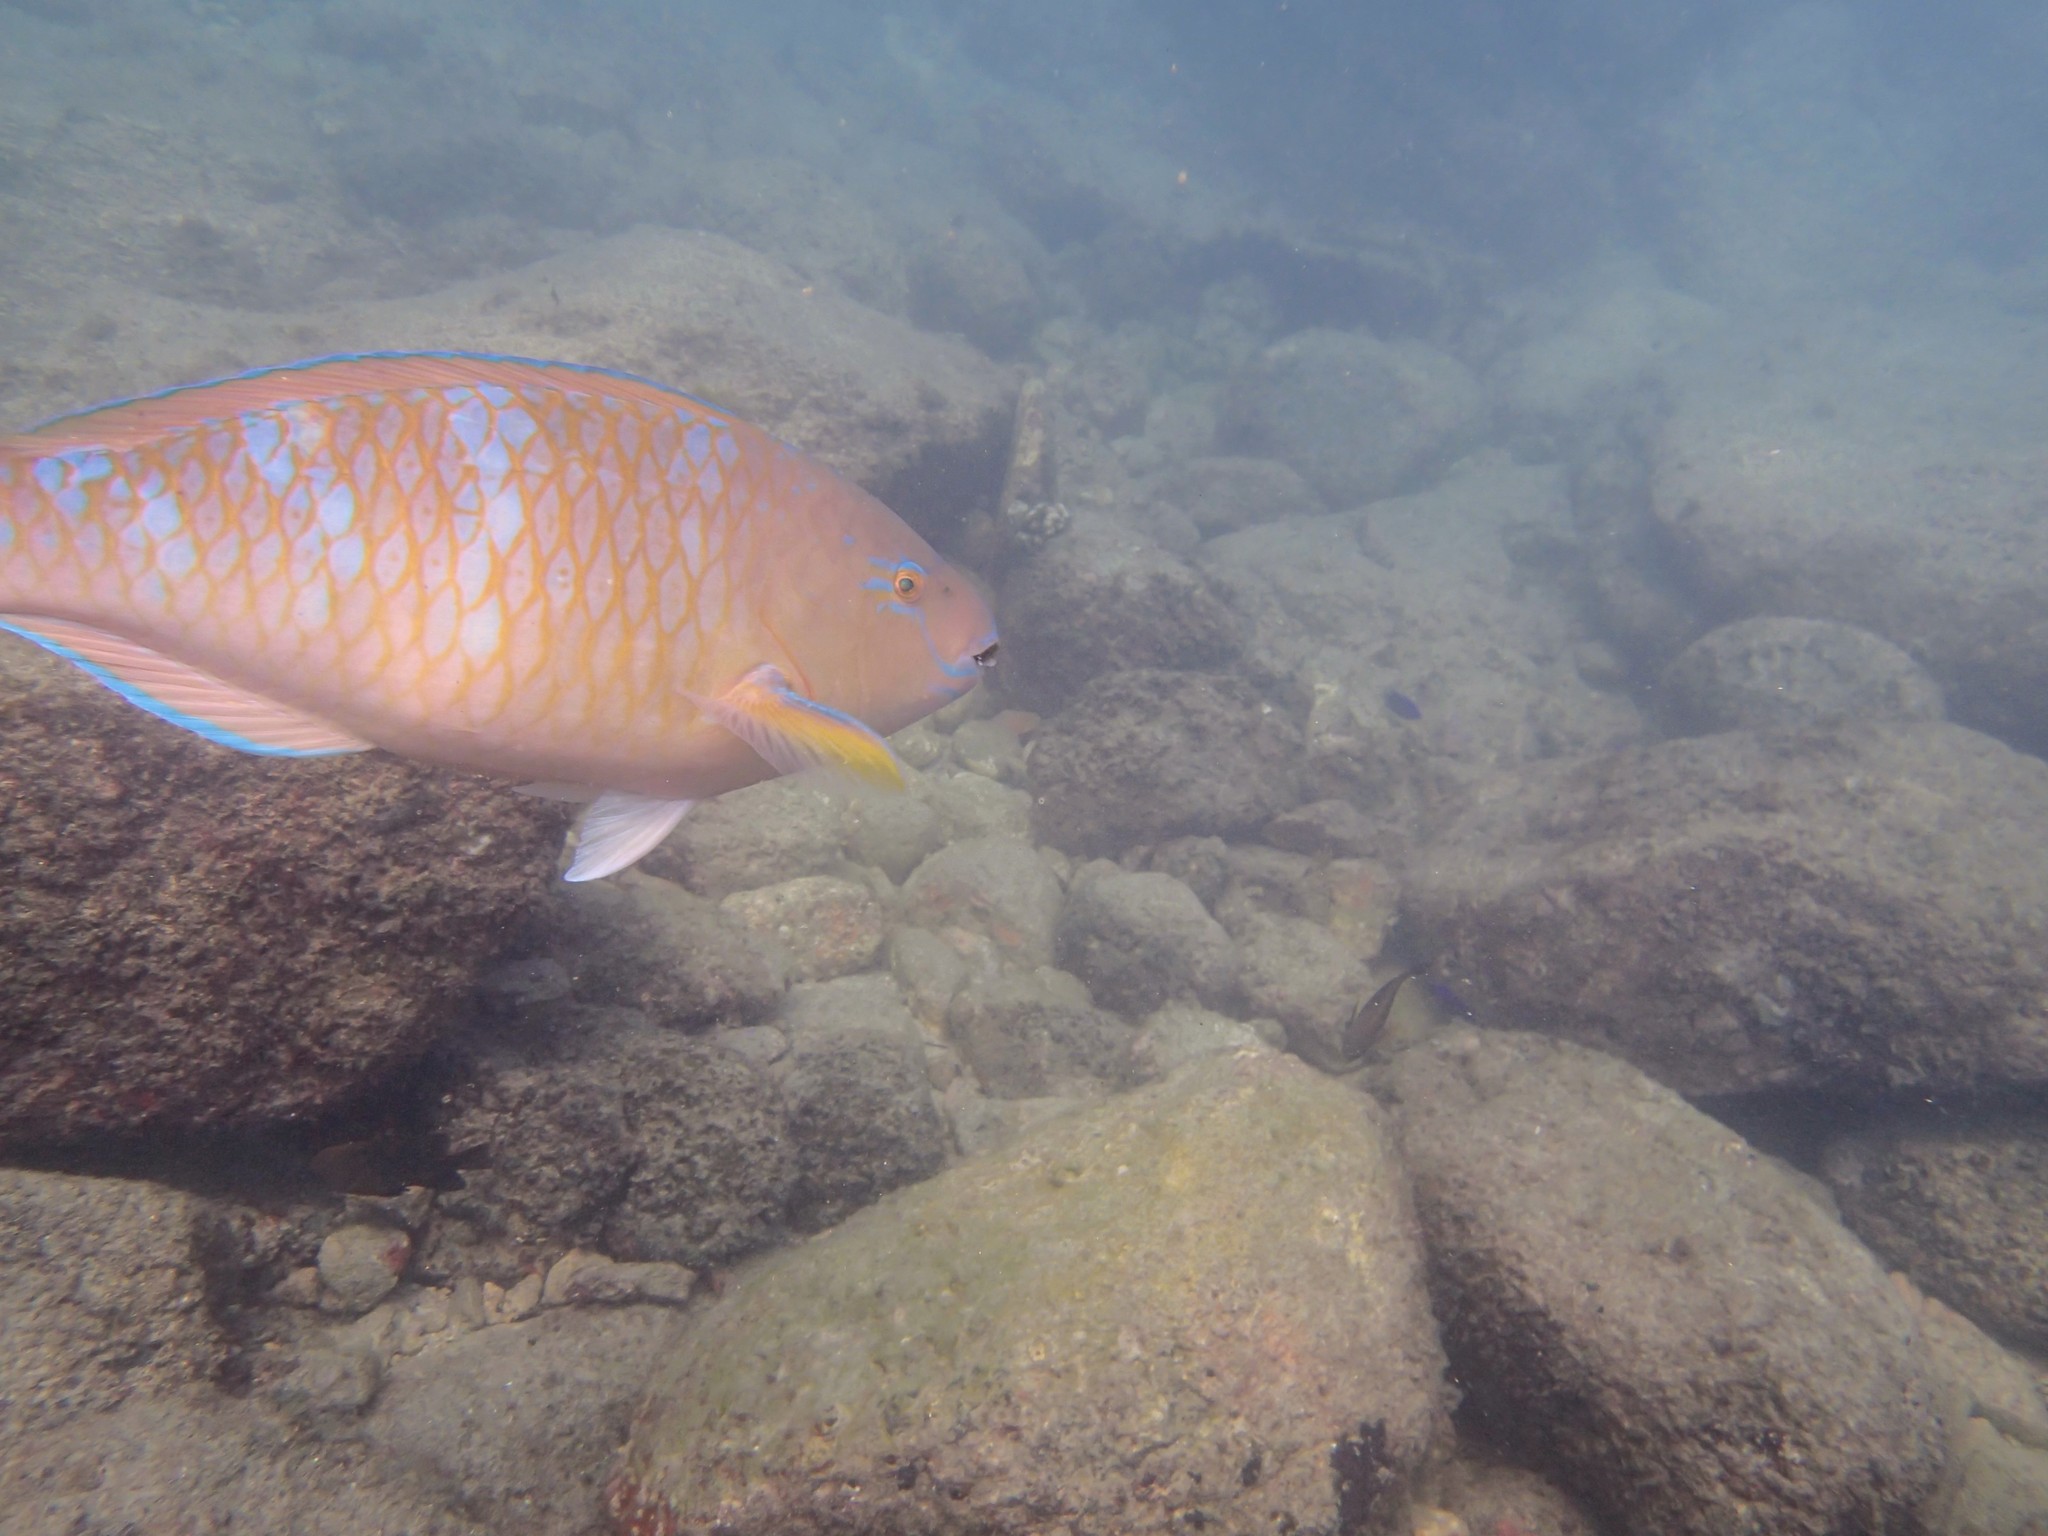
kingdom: Animalia
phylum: Chordata
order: Perciformes
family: Scaridae
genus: Scarus
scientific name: Scarus ghobban
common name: Blue-barred parrotfish
